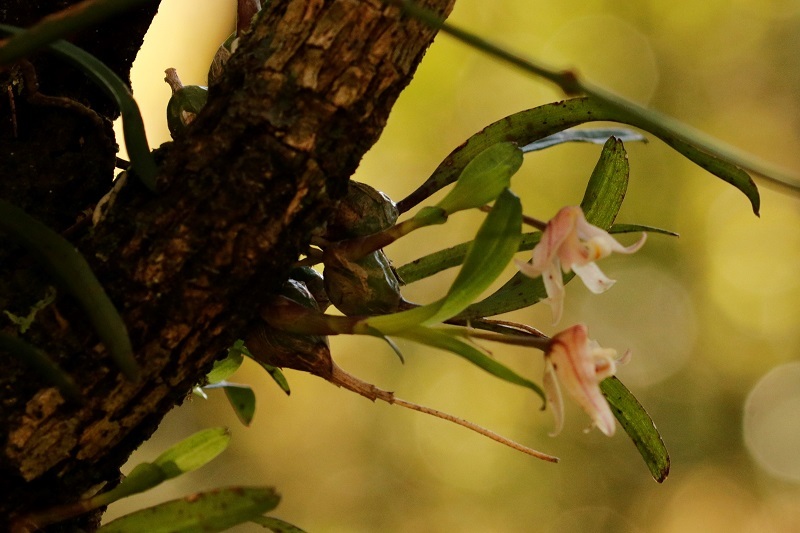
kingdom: Plantae
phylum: Tracheophyta
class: Liliopsida
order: Asparagales
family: Orchidaceae
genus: Polystachya
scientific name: Polystachya ottoniana
